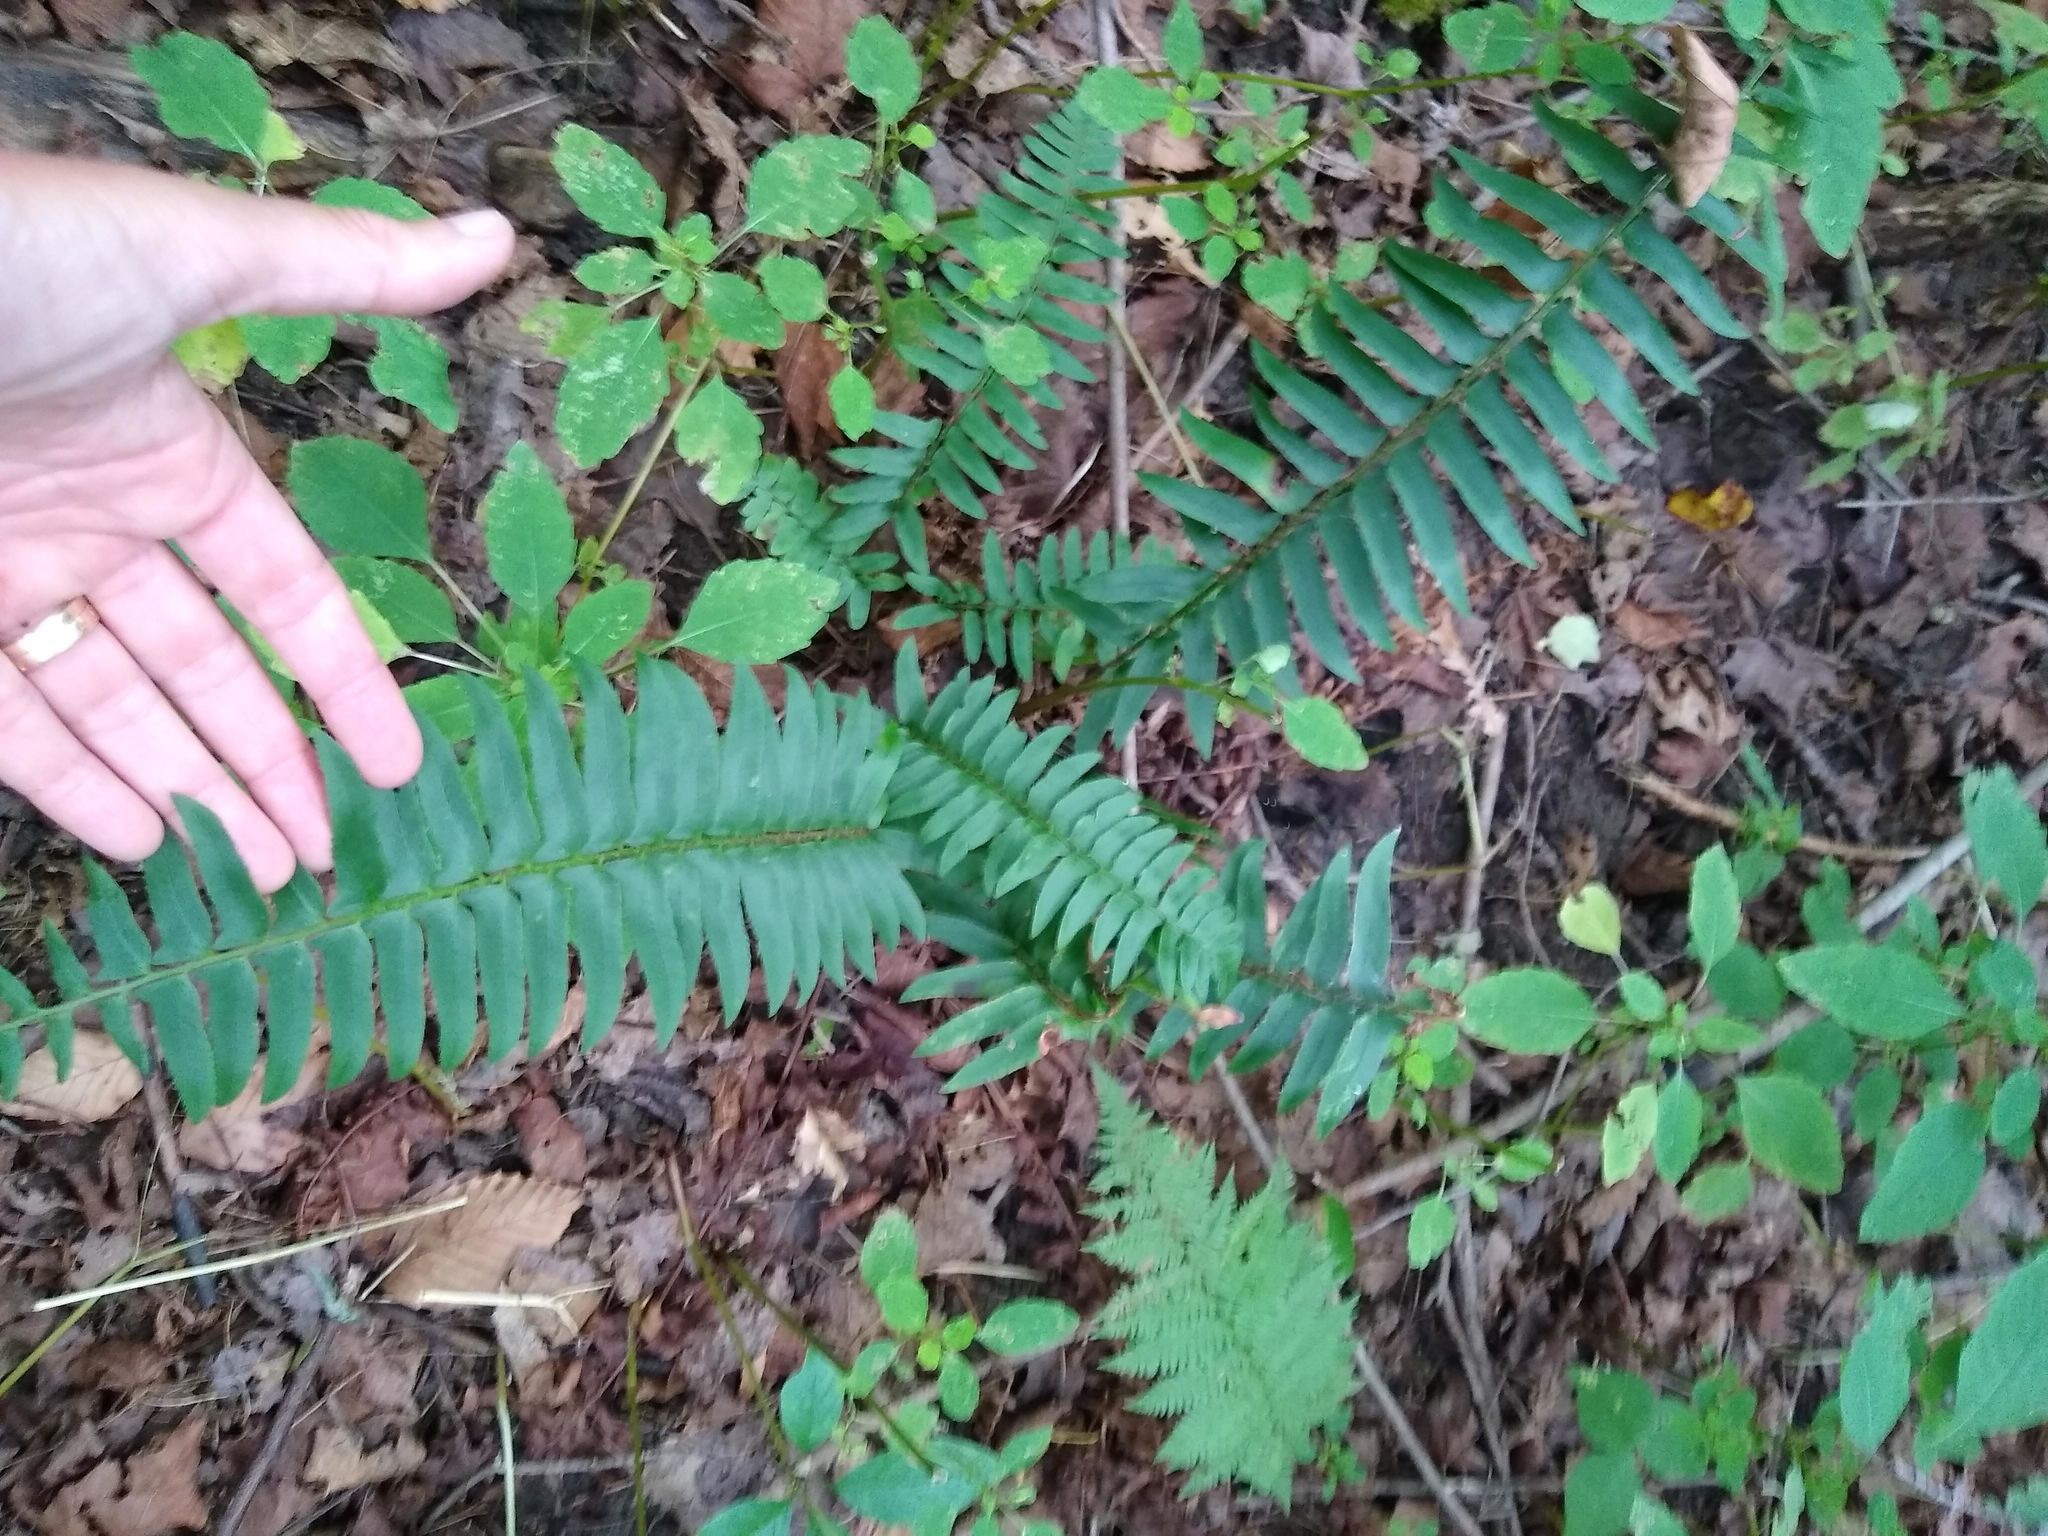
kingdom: Plantae
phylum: Tracheophyta
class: Polypodiopsida
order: Polypodiales
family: Dryopteridaceae
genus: Polystichum
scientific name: Polystichum acrostichoides
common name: Christmas fern
